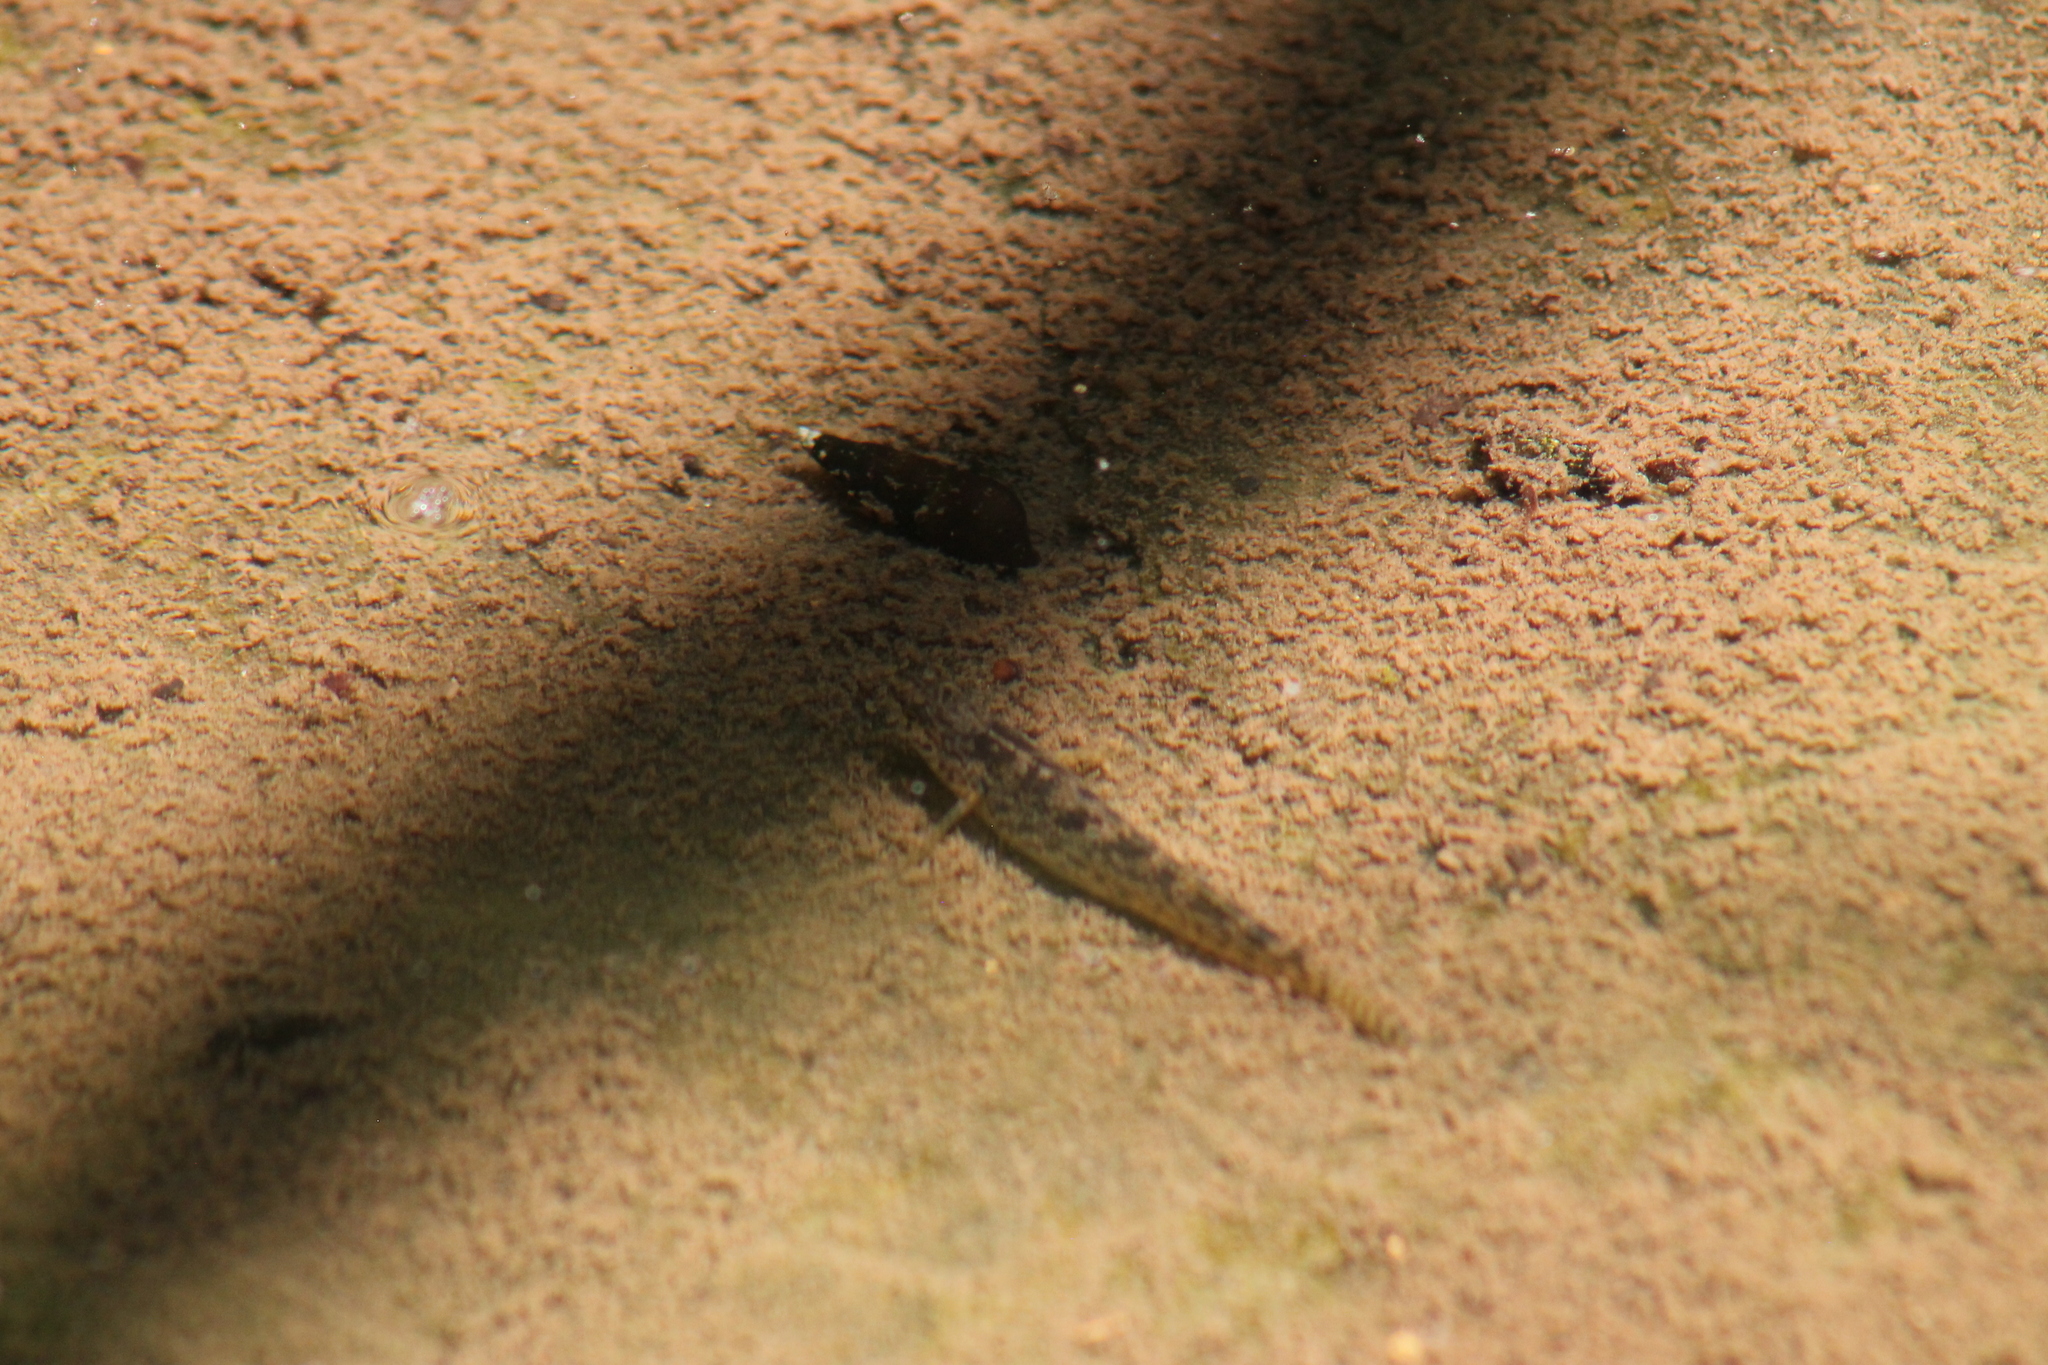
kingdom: Animalia
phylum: Chordata
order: Perciformes
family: Percidae
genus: Etheostoma
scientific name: Etheostoma crossopterum
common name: Fringed darter
